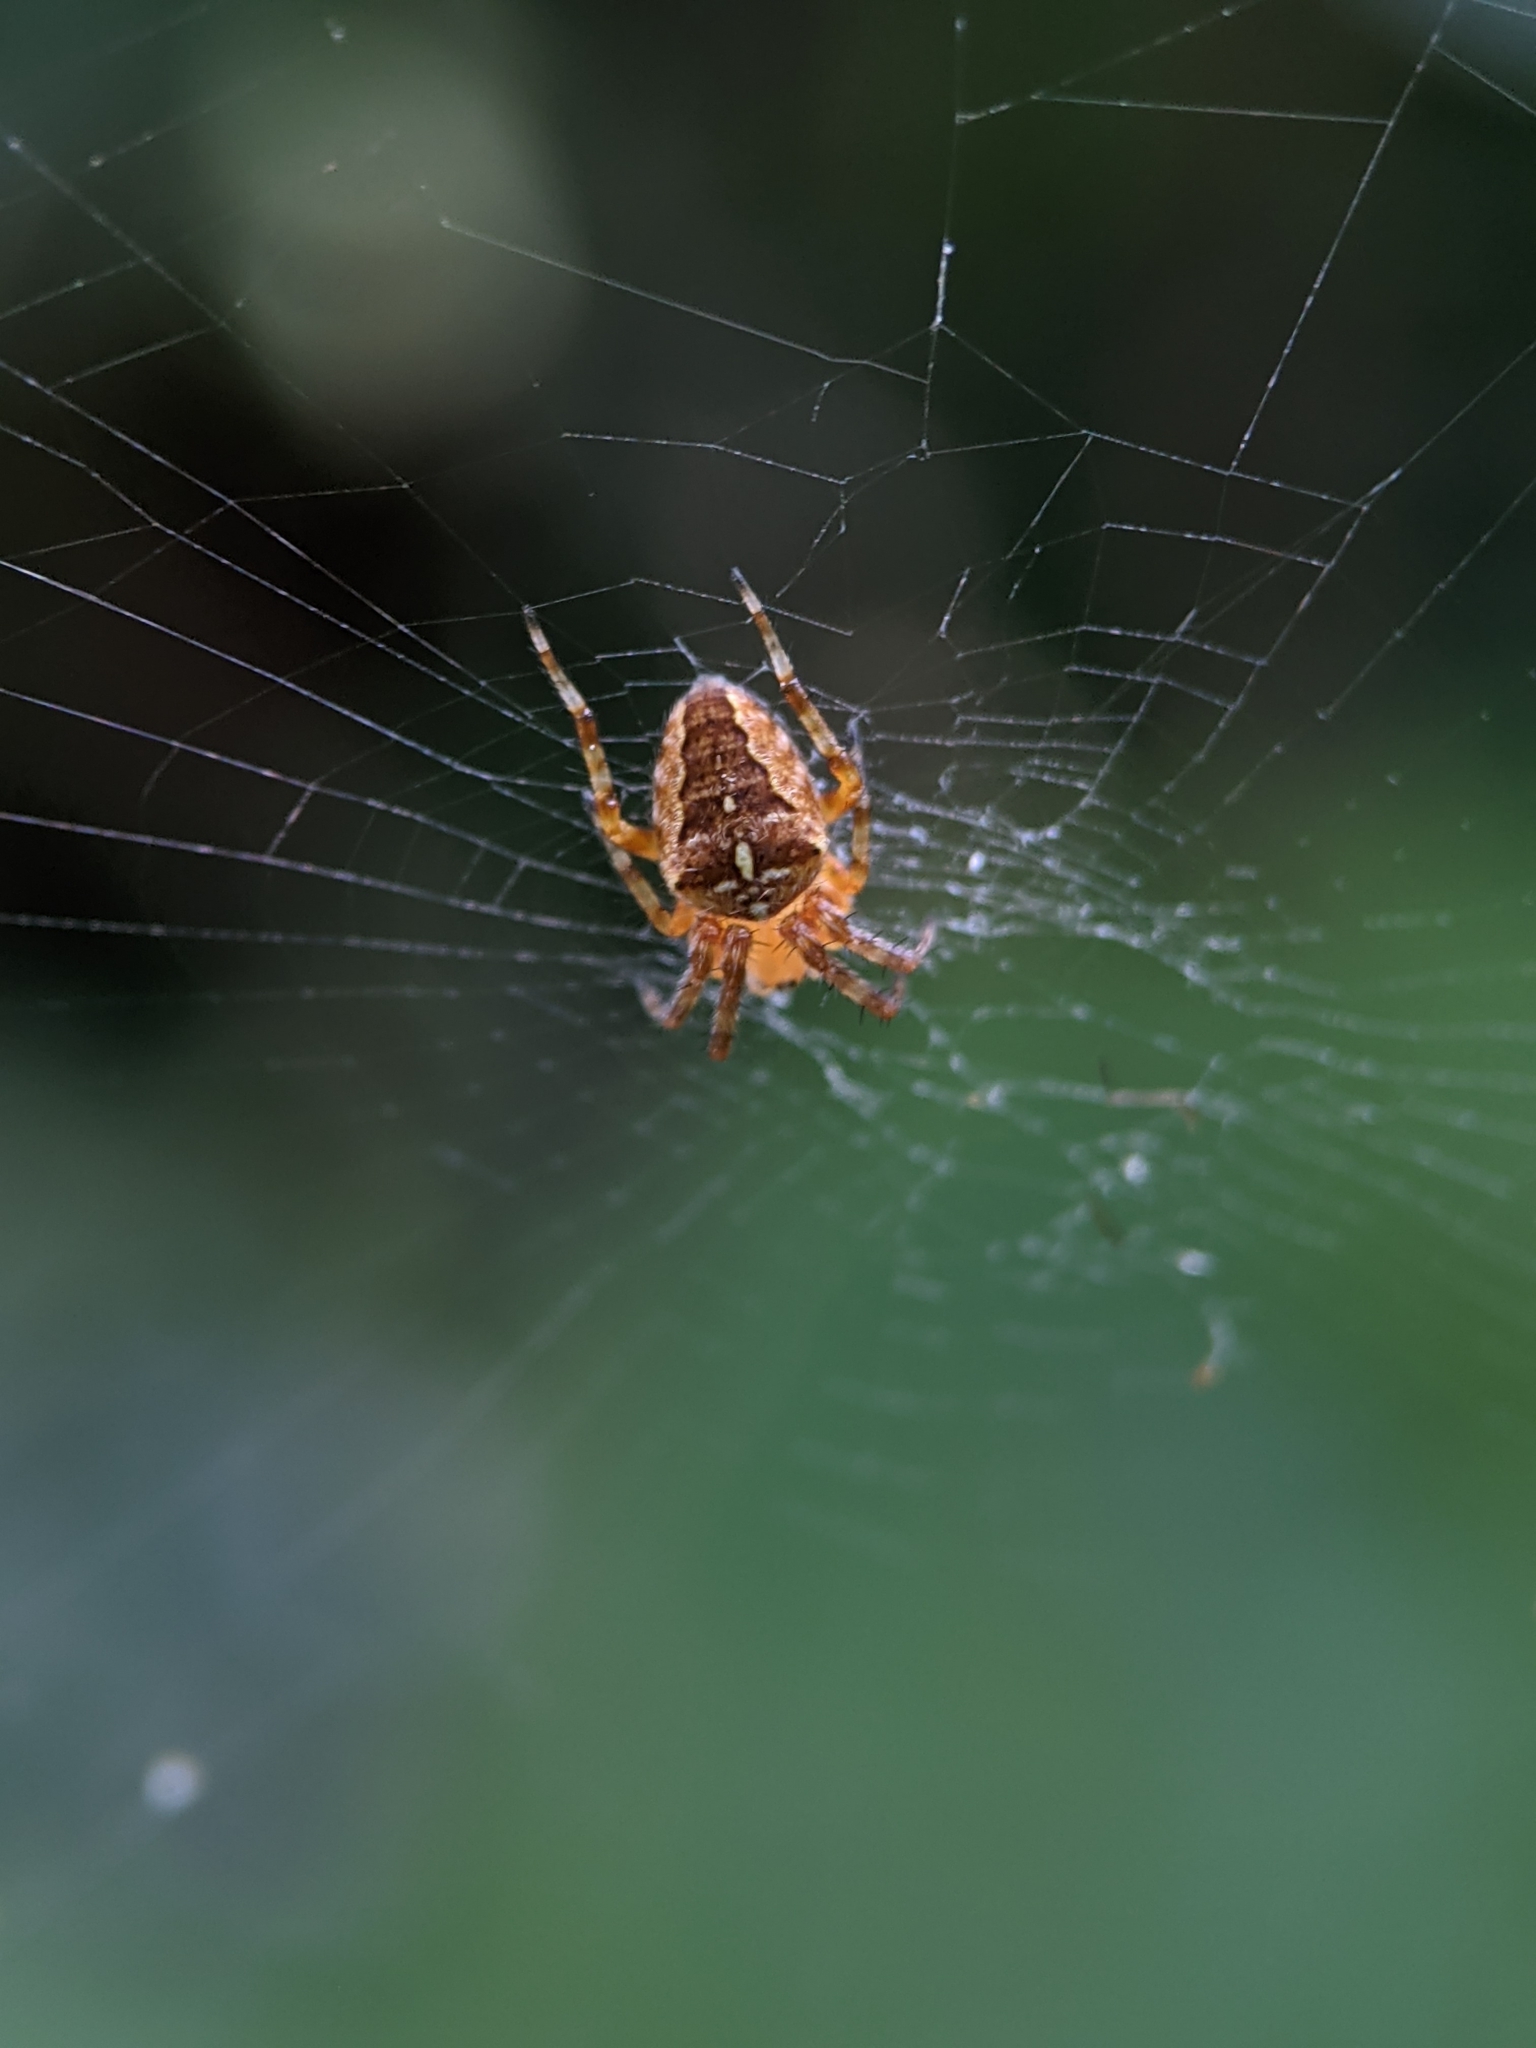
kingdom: Animalia
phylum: Arthropoda
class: Arachnida
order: Araneae
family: Araneidae
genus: Araneus
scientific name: Araneus diadematus
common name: Cross orbweaver
